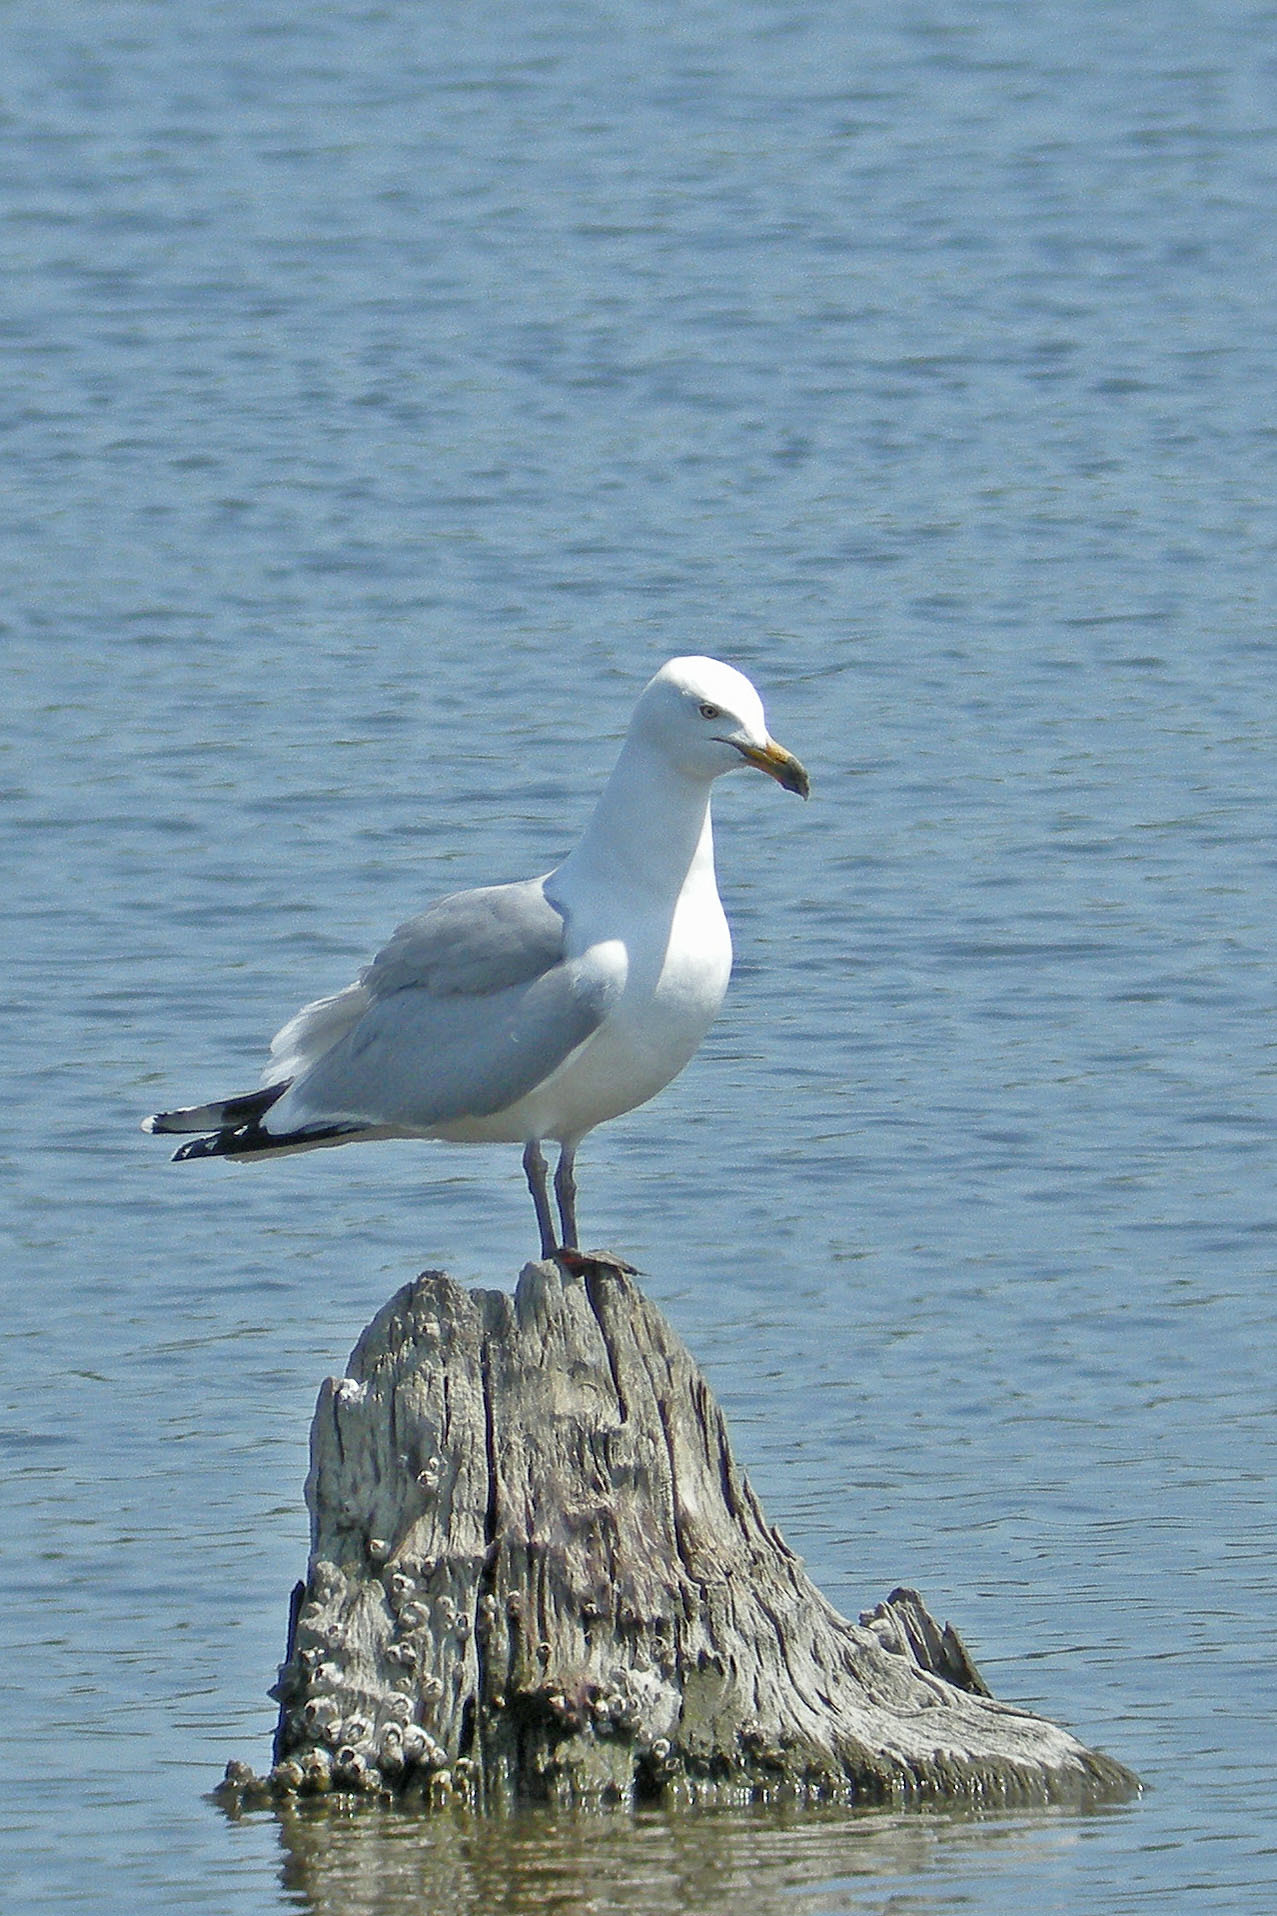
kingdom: Animalia
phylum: Chordata
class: Aves
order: Charadriiformes
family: Laridae
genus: Larus
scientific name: Larus argentatus
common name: Herring gull
